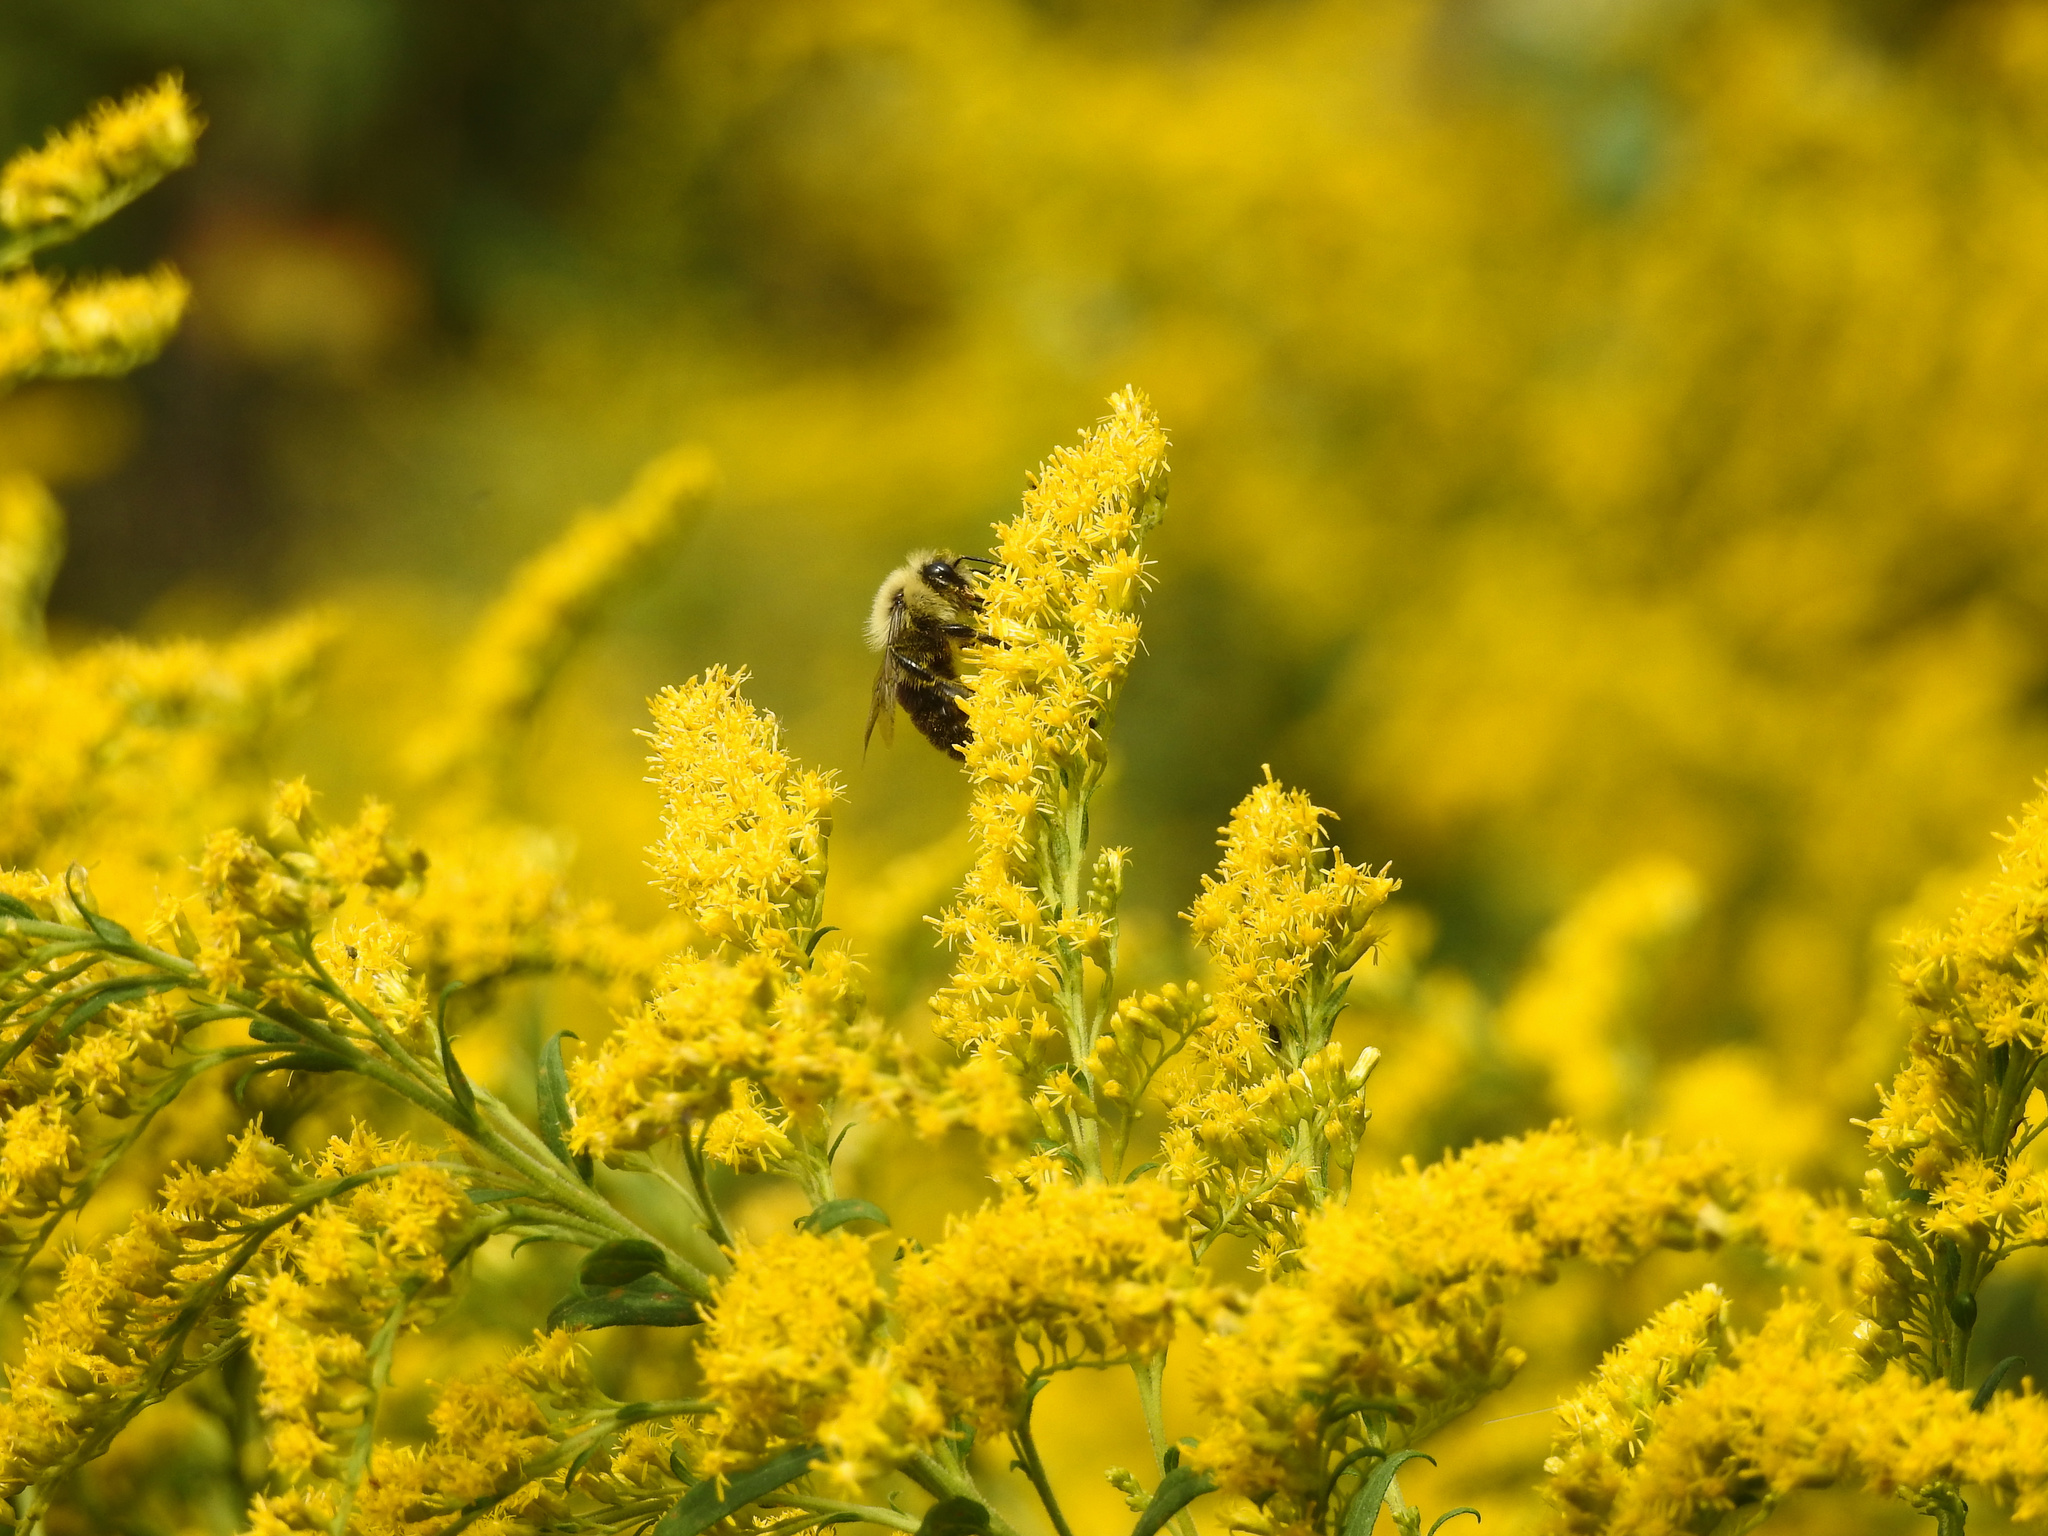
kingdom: Animalia
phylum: Arthropoda
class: Insecta
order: Hymenoptera
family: Apidae
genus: Bombus
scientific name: Bombus impatiens
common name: Common eastern bumble bee
